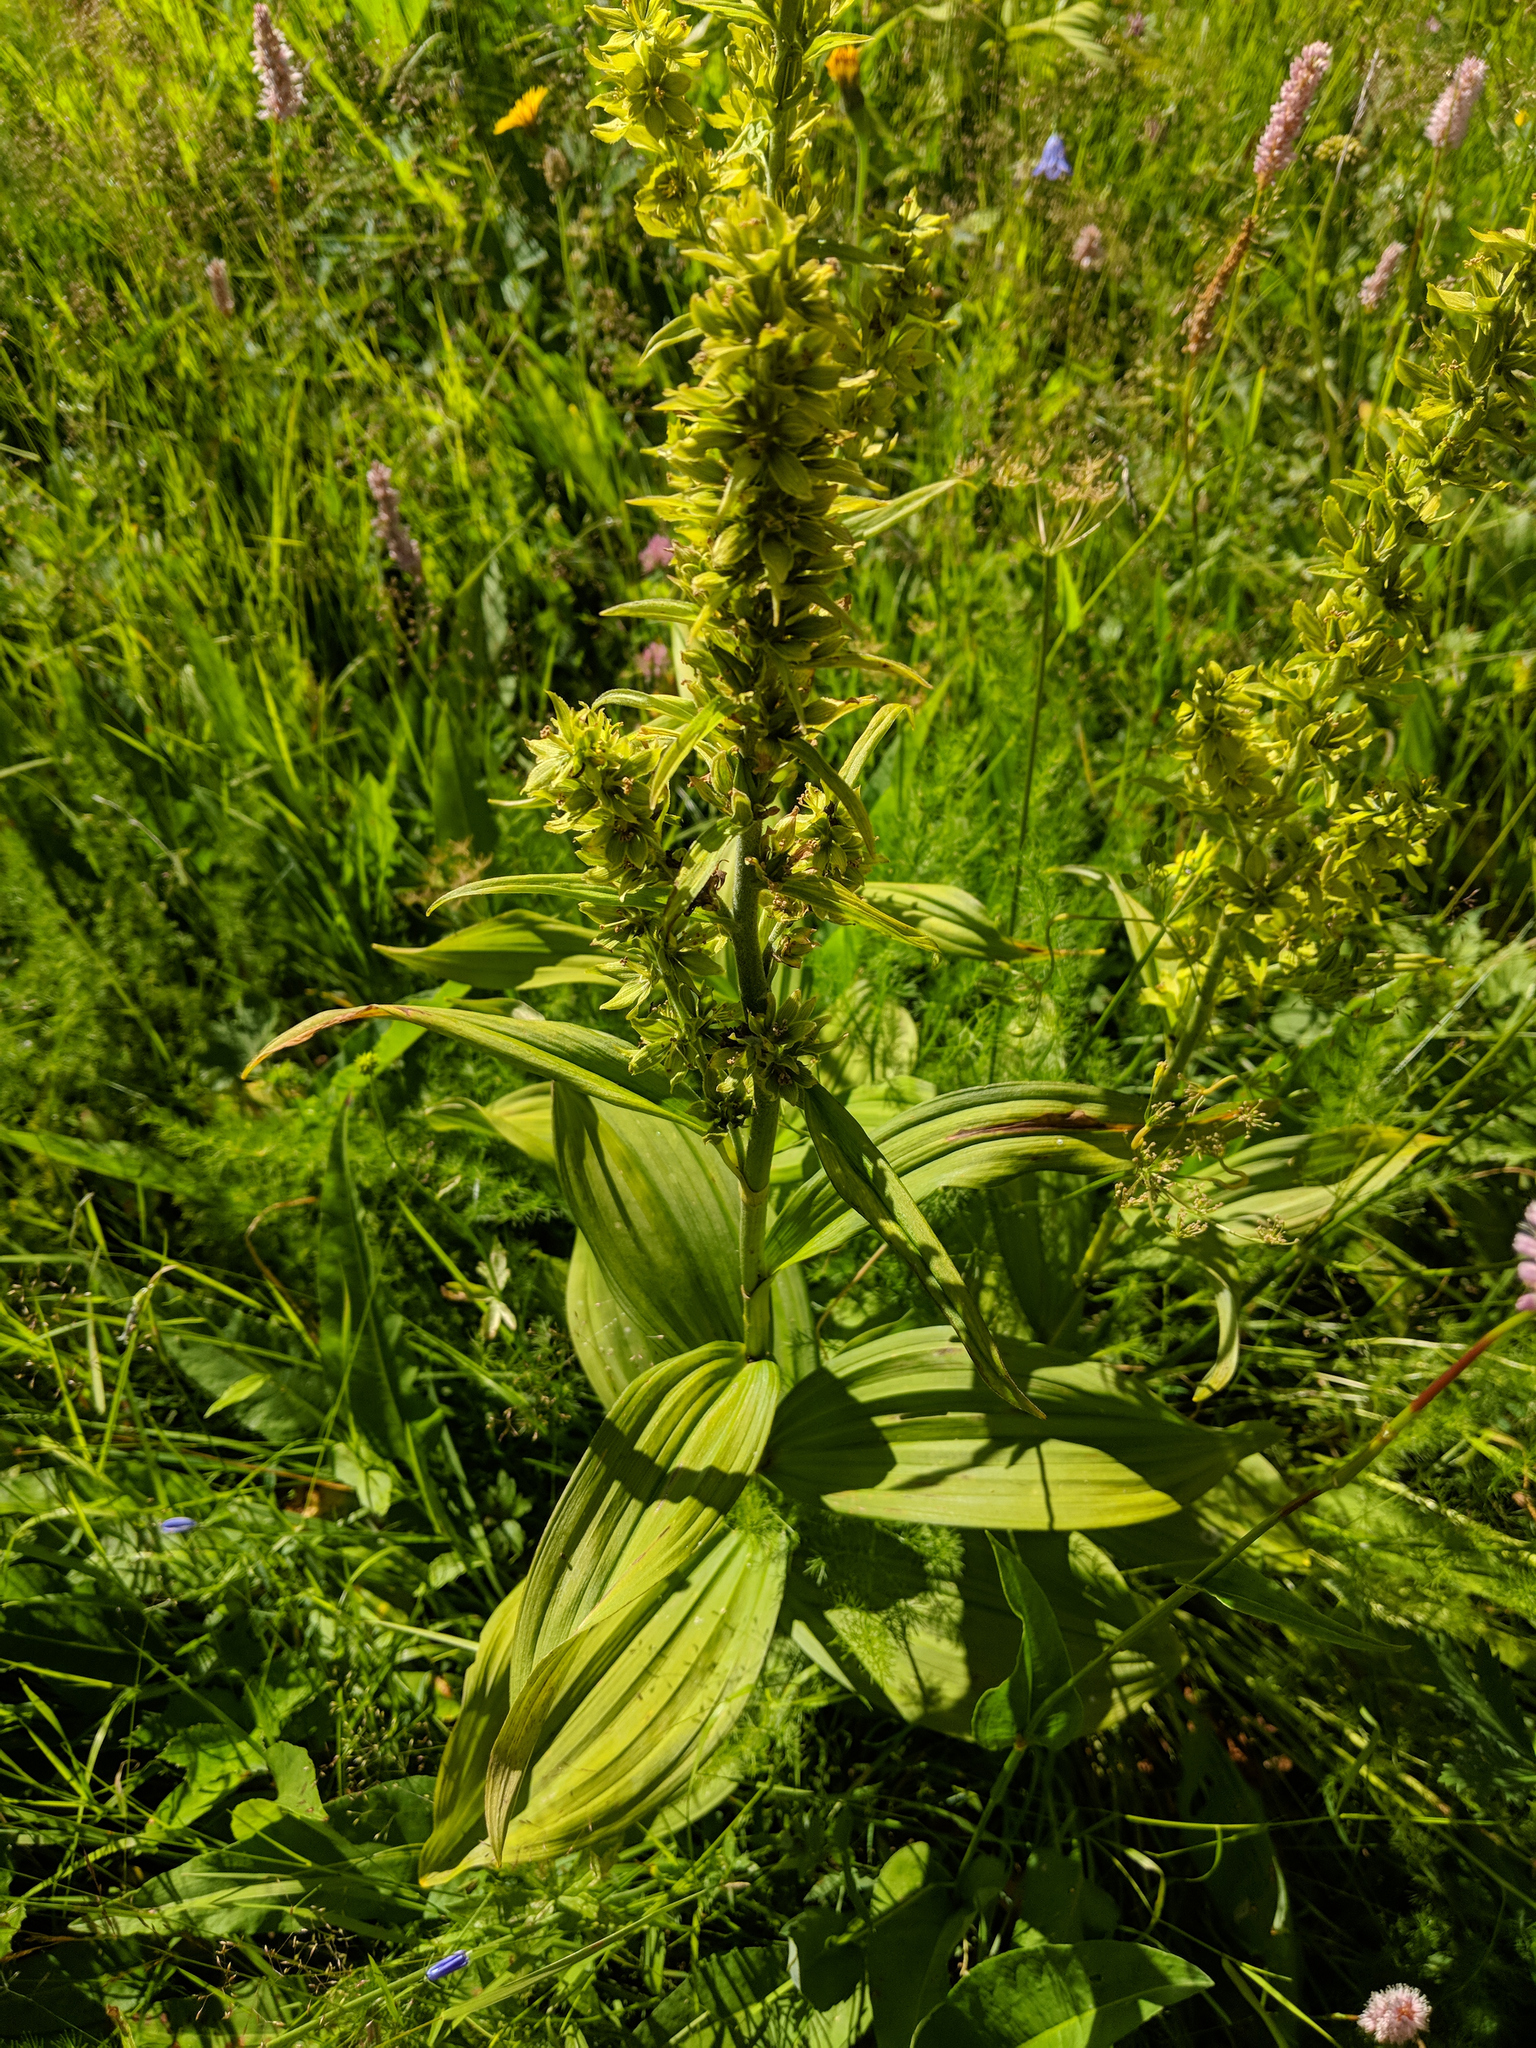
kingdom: Plantae
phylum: Tracheophyta
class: Liliopsida
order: Liliales
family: Melanthiaceae
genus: Veratrum
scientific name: Veratrum lobelianum
